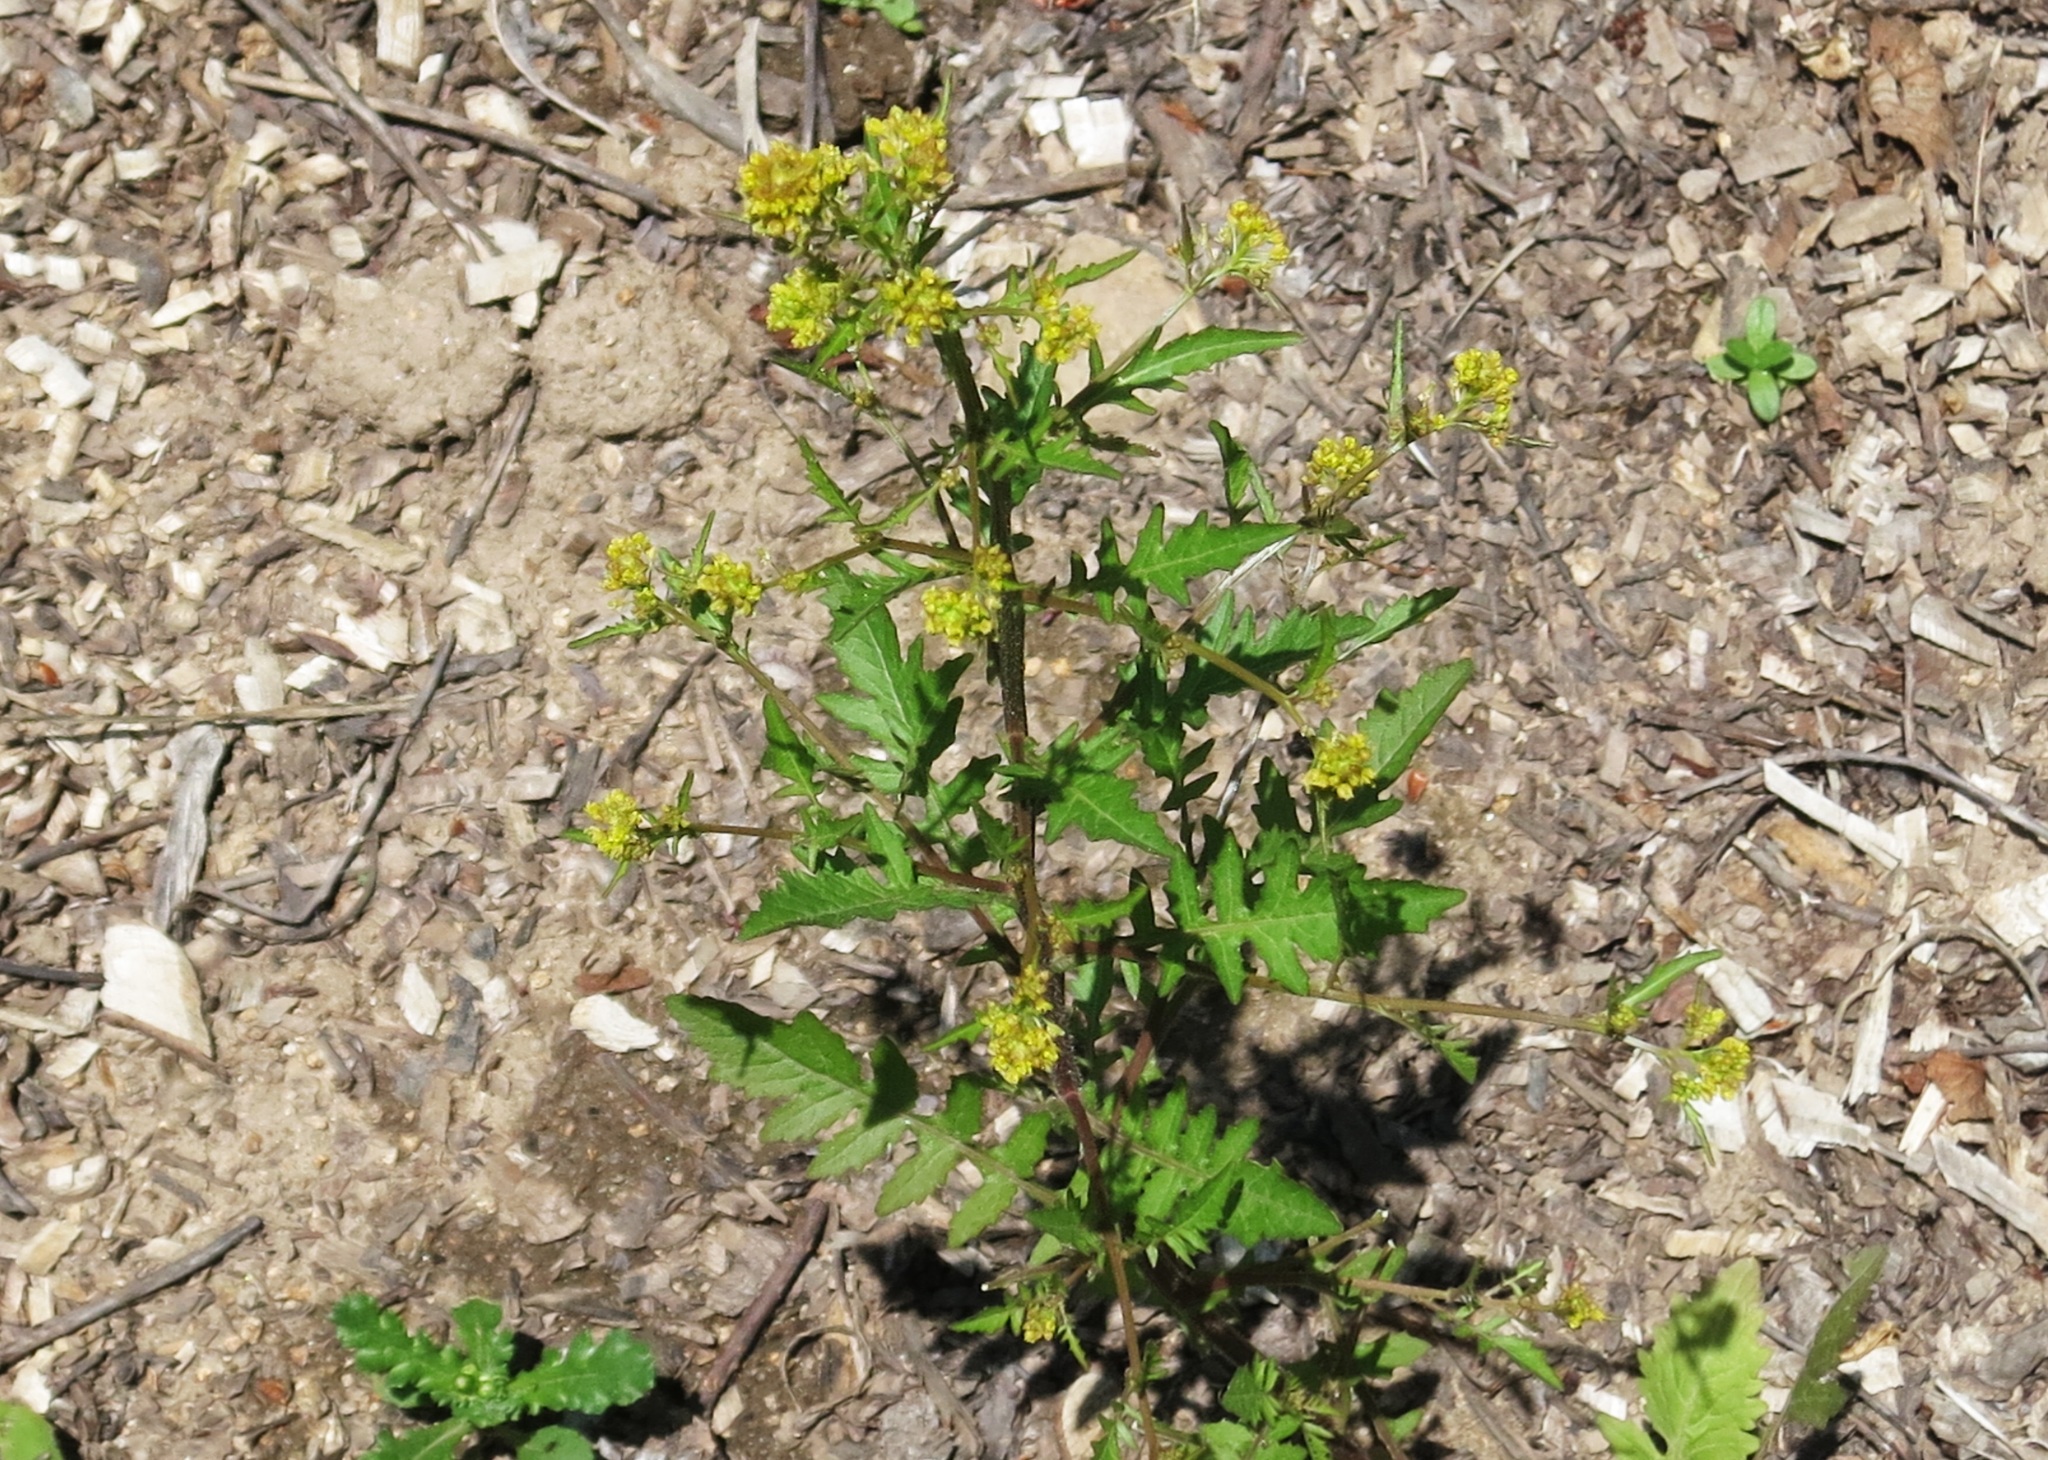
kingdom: Plantae
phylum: Tracheophyta
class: Magnoliopsida
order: Brassicales
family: Brassicaceae
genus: Rorippa
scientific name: Rorippa palustris
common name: Marsh yellow-cress
